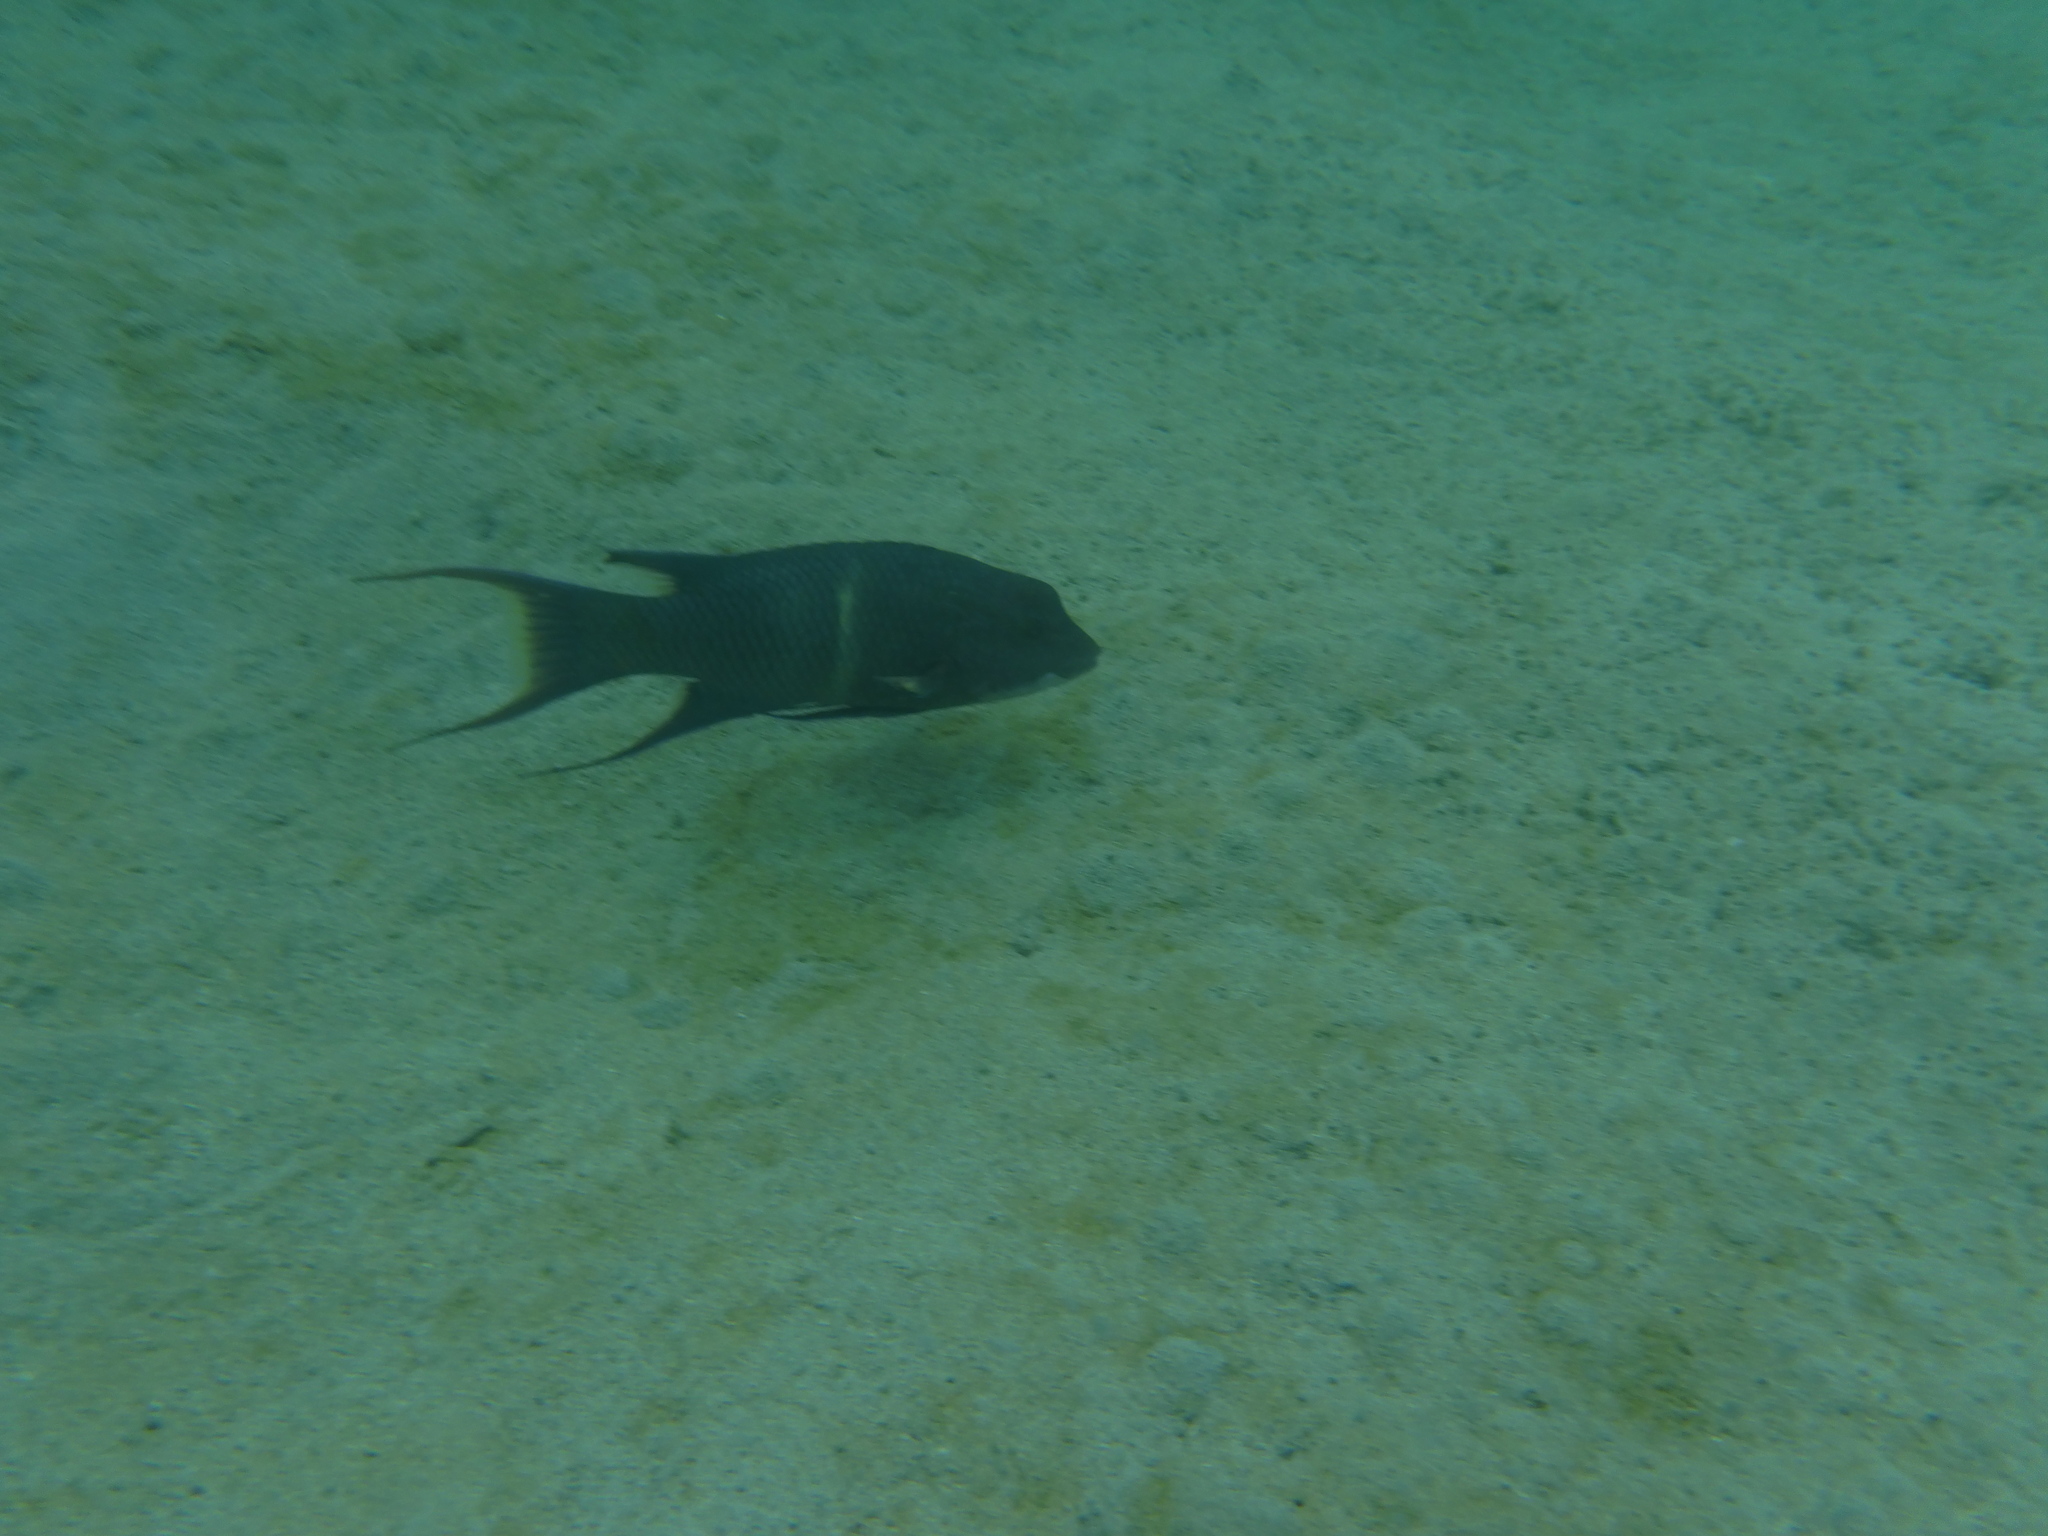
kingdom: Animalia
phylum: Chordata
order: Perciformes
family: Labridae
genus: Bodianus
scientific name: Bodianus diplotaenia
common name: Mexican hogfish
